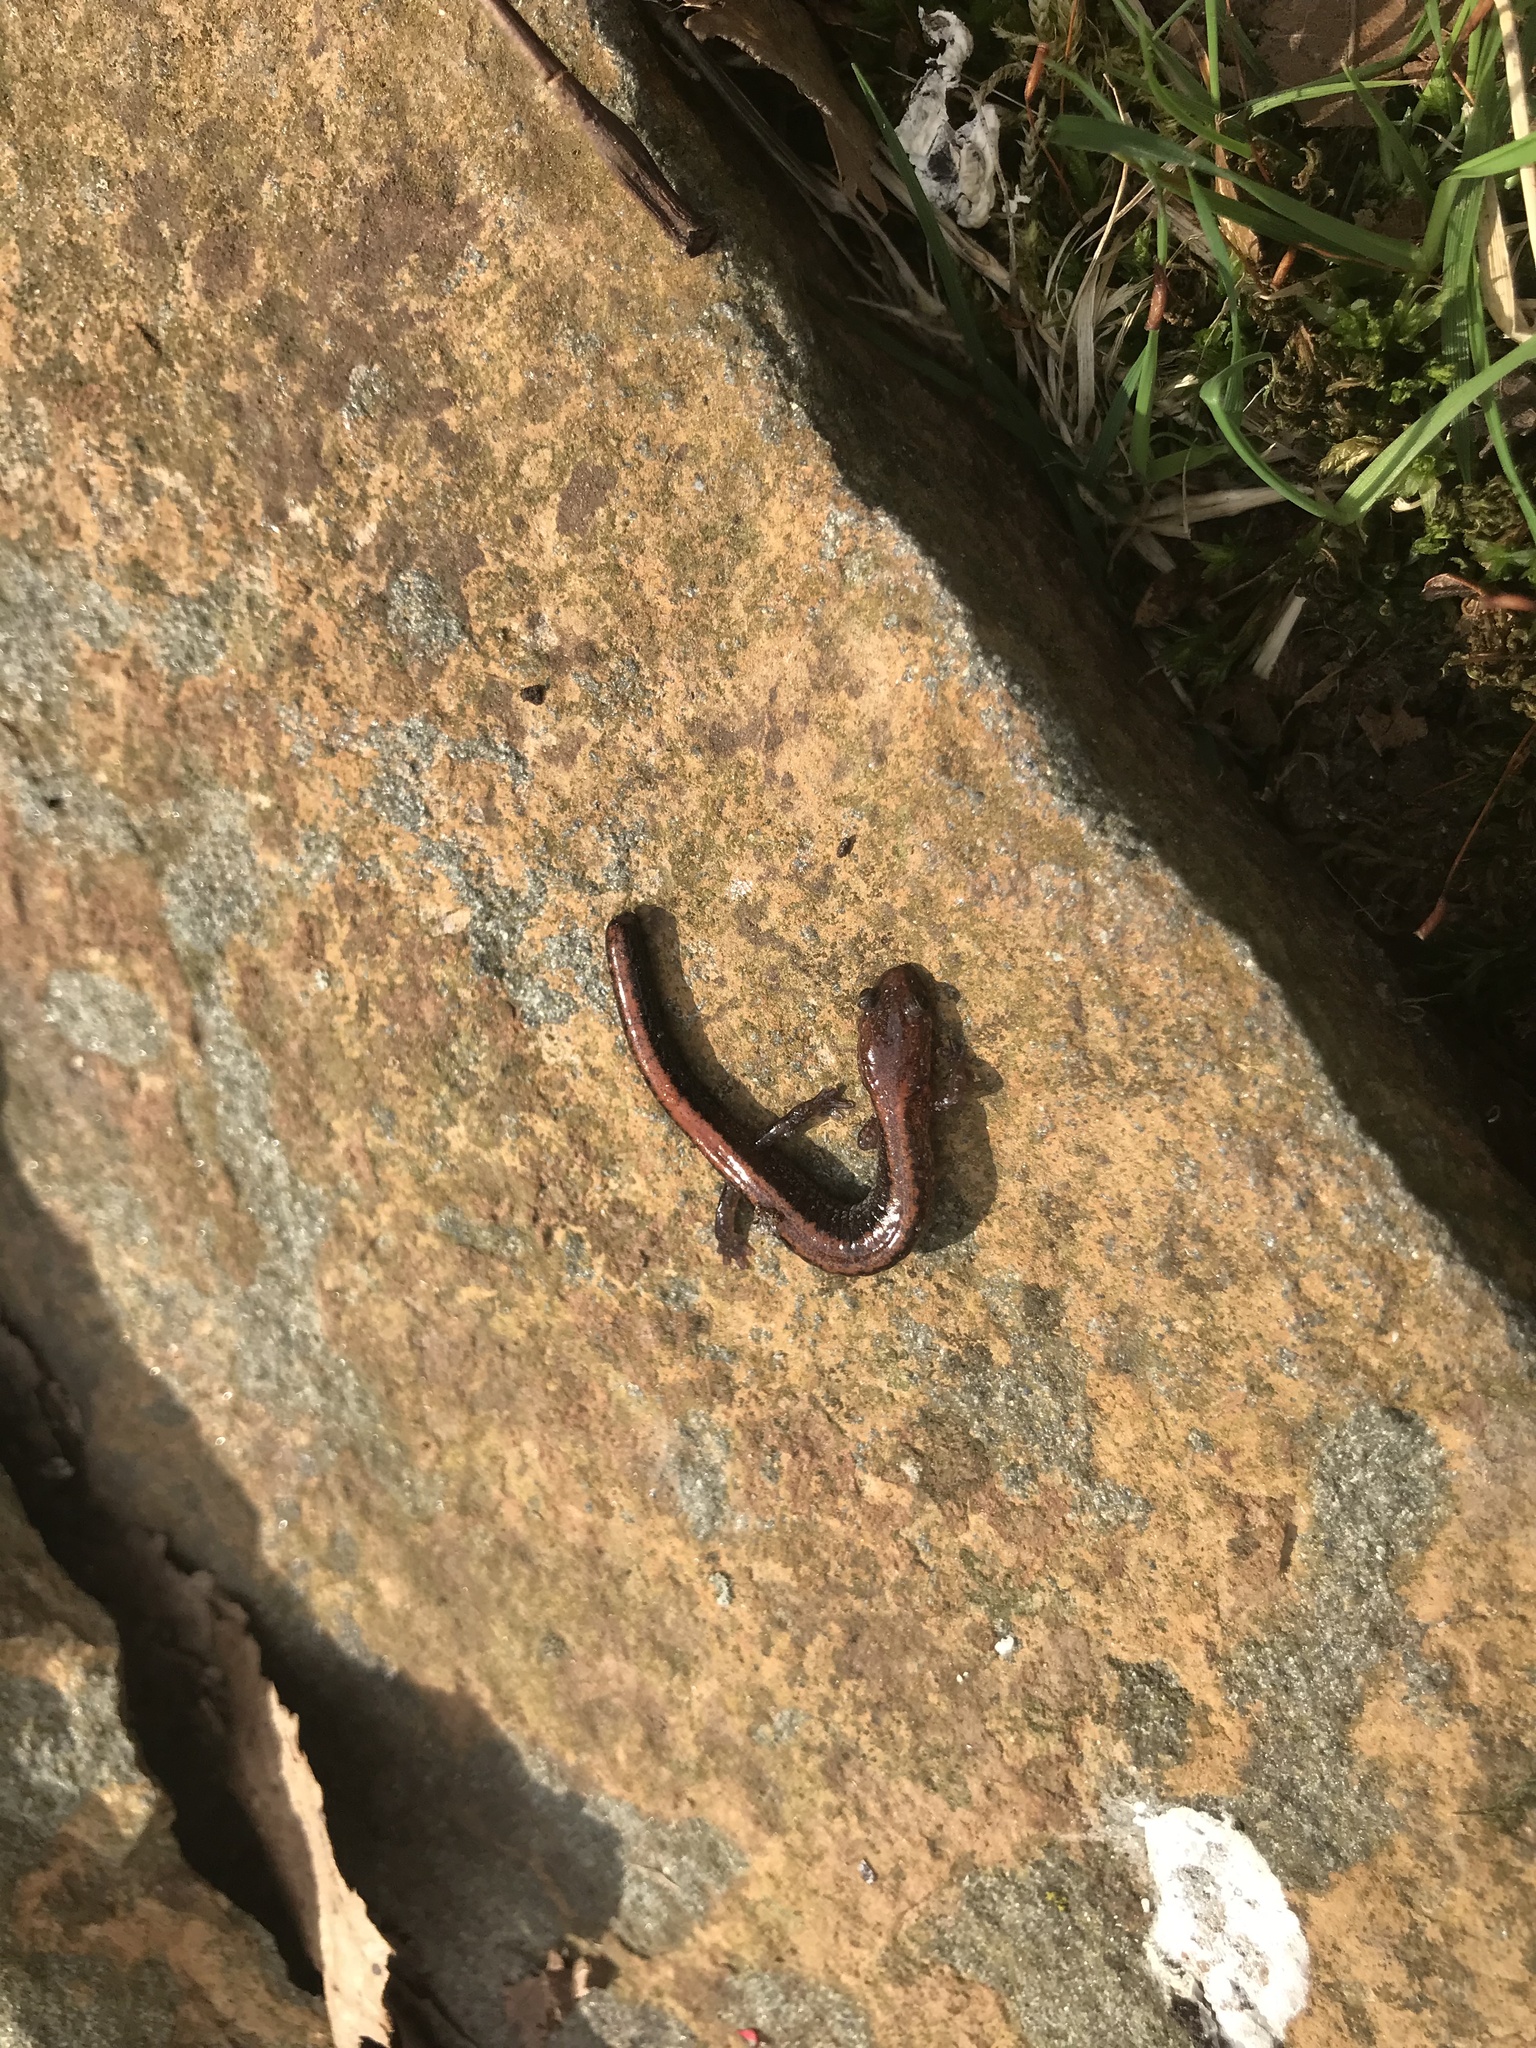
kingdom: Animalia
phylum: Chordata
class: Amphibia
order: Caudata
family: Plethodontidae
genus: Plethodon
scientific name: Plethodon cinereus
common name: Redback salamander
